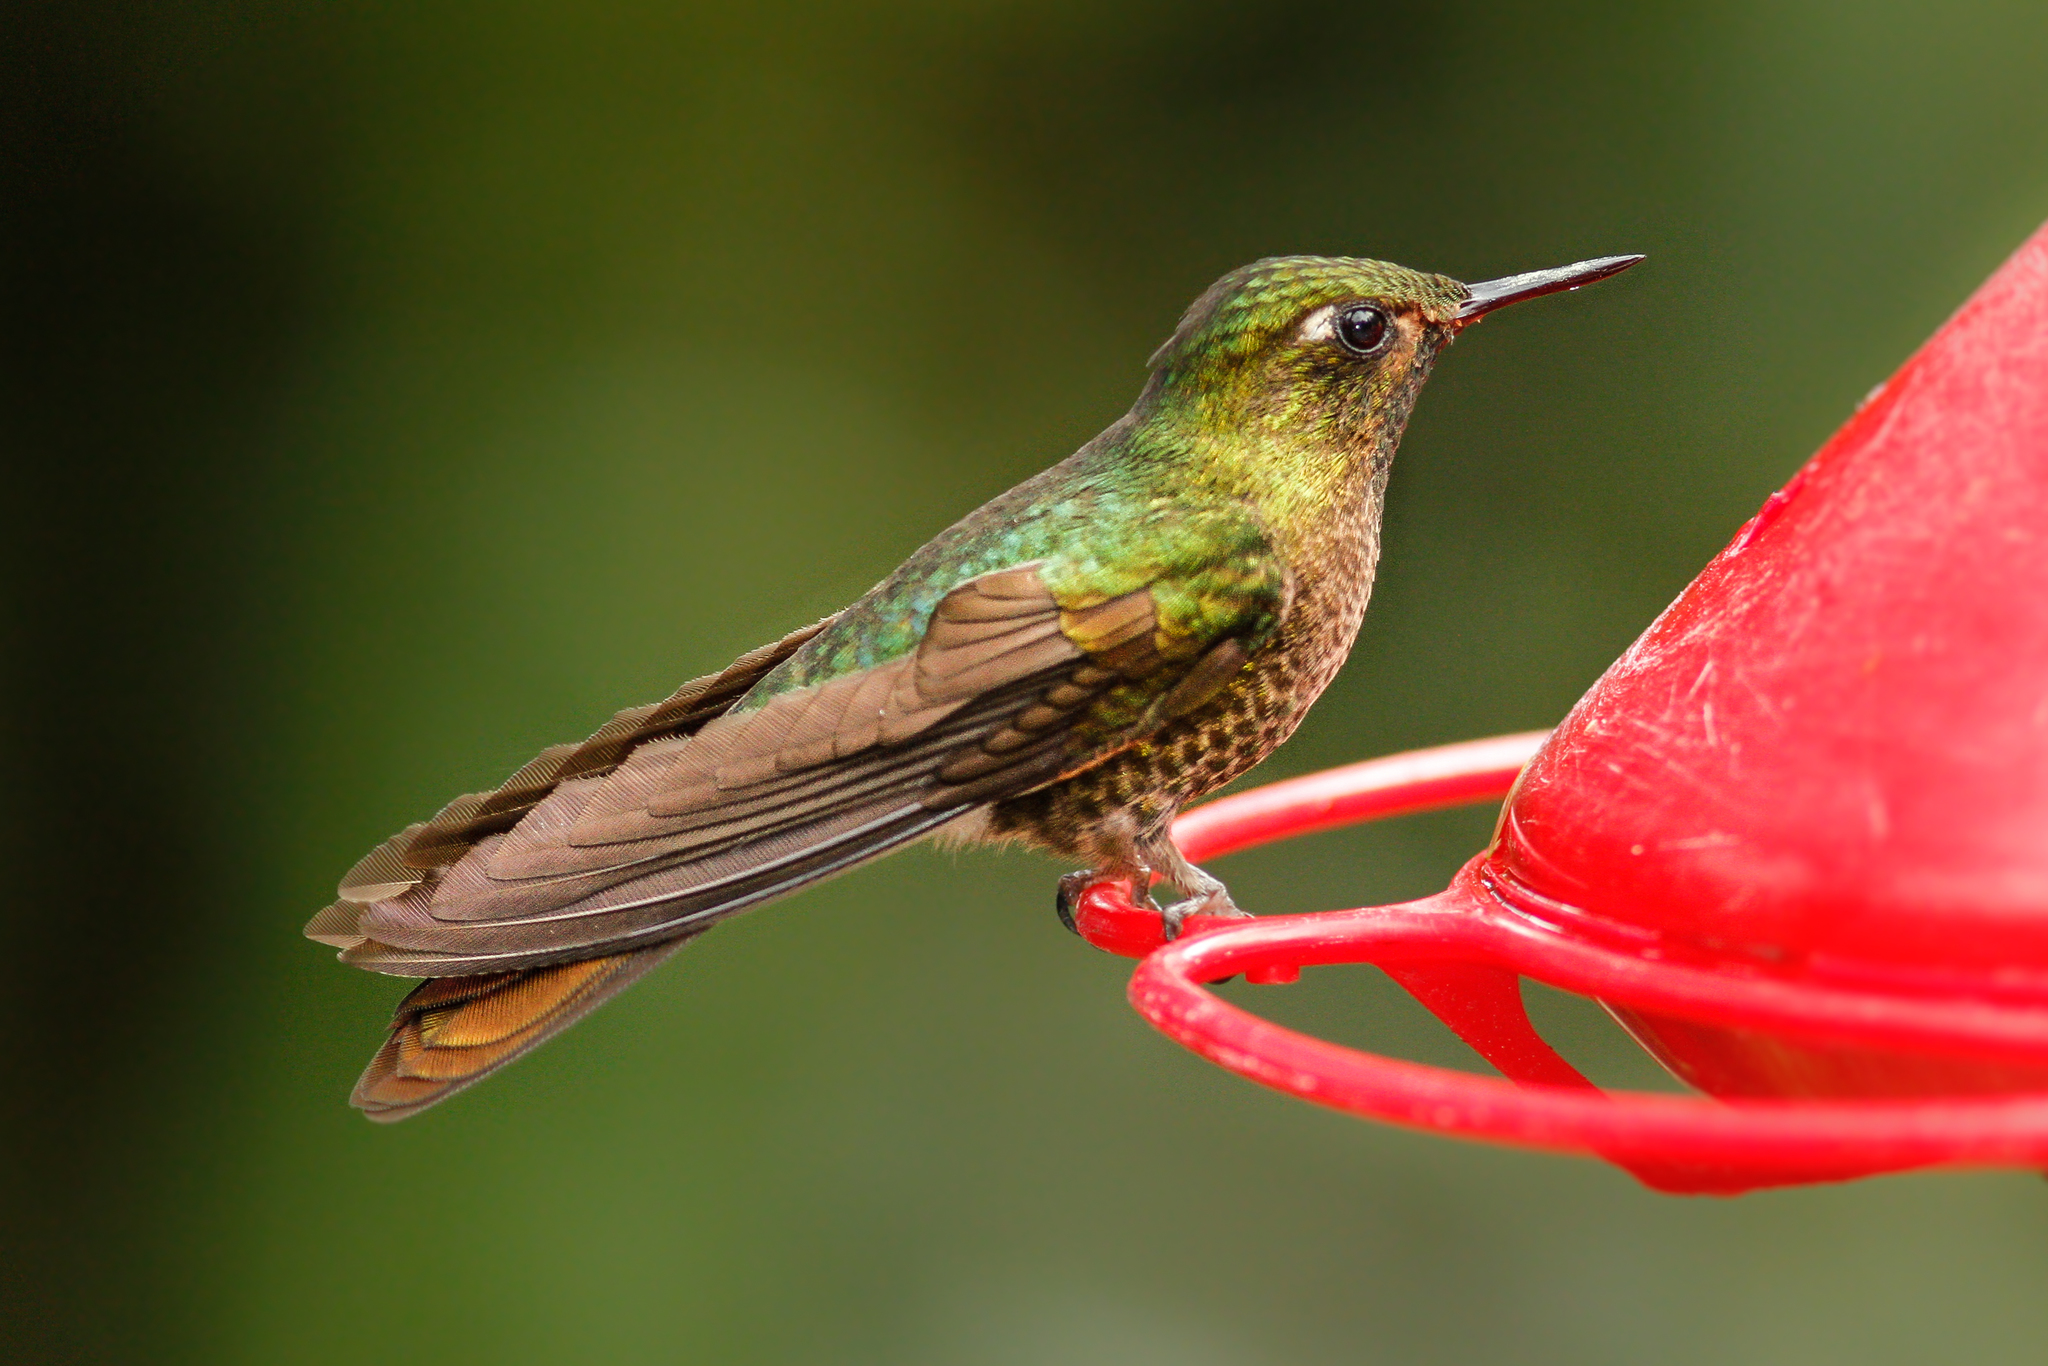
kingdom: Animalia
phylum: Chordata
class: Aves
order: Apodiformes
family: Trochilidae
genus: Metallura
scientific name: Metallura tyrianthina
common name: Tyrian metaltail
